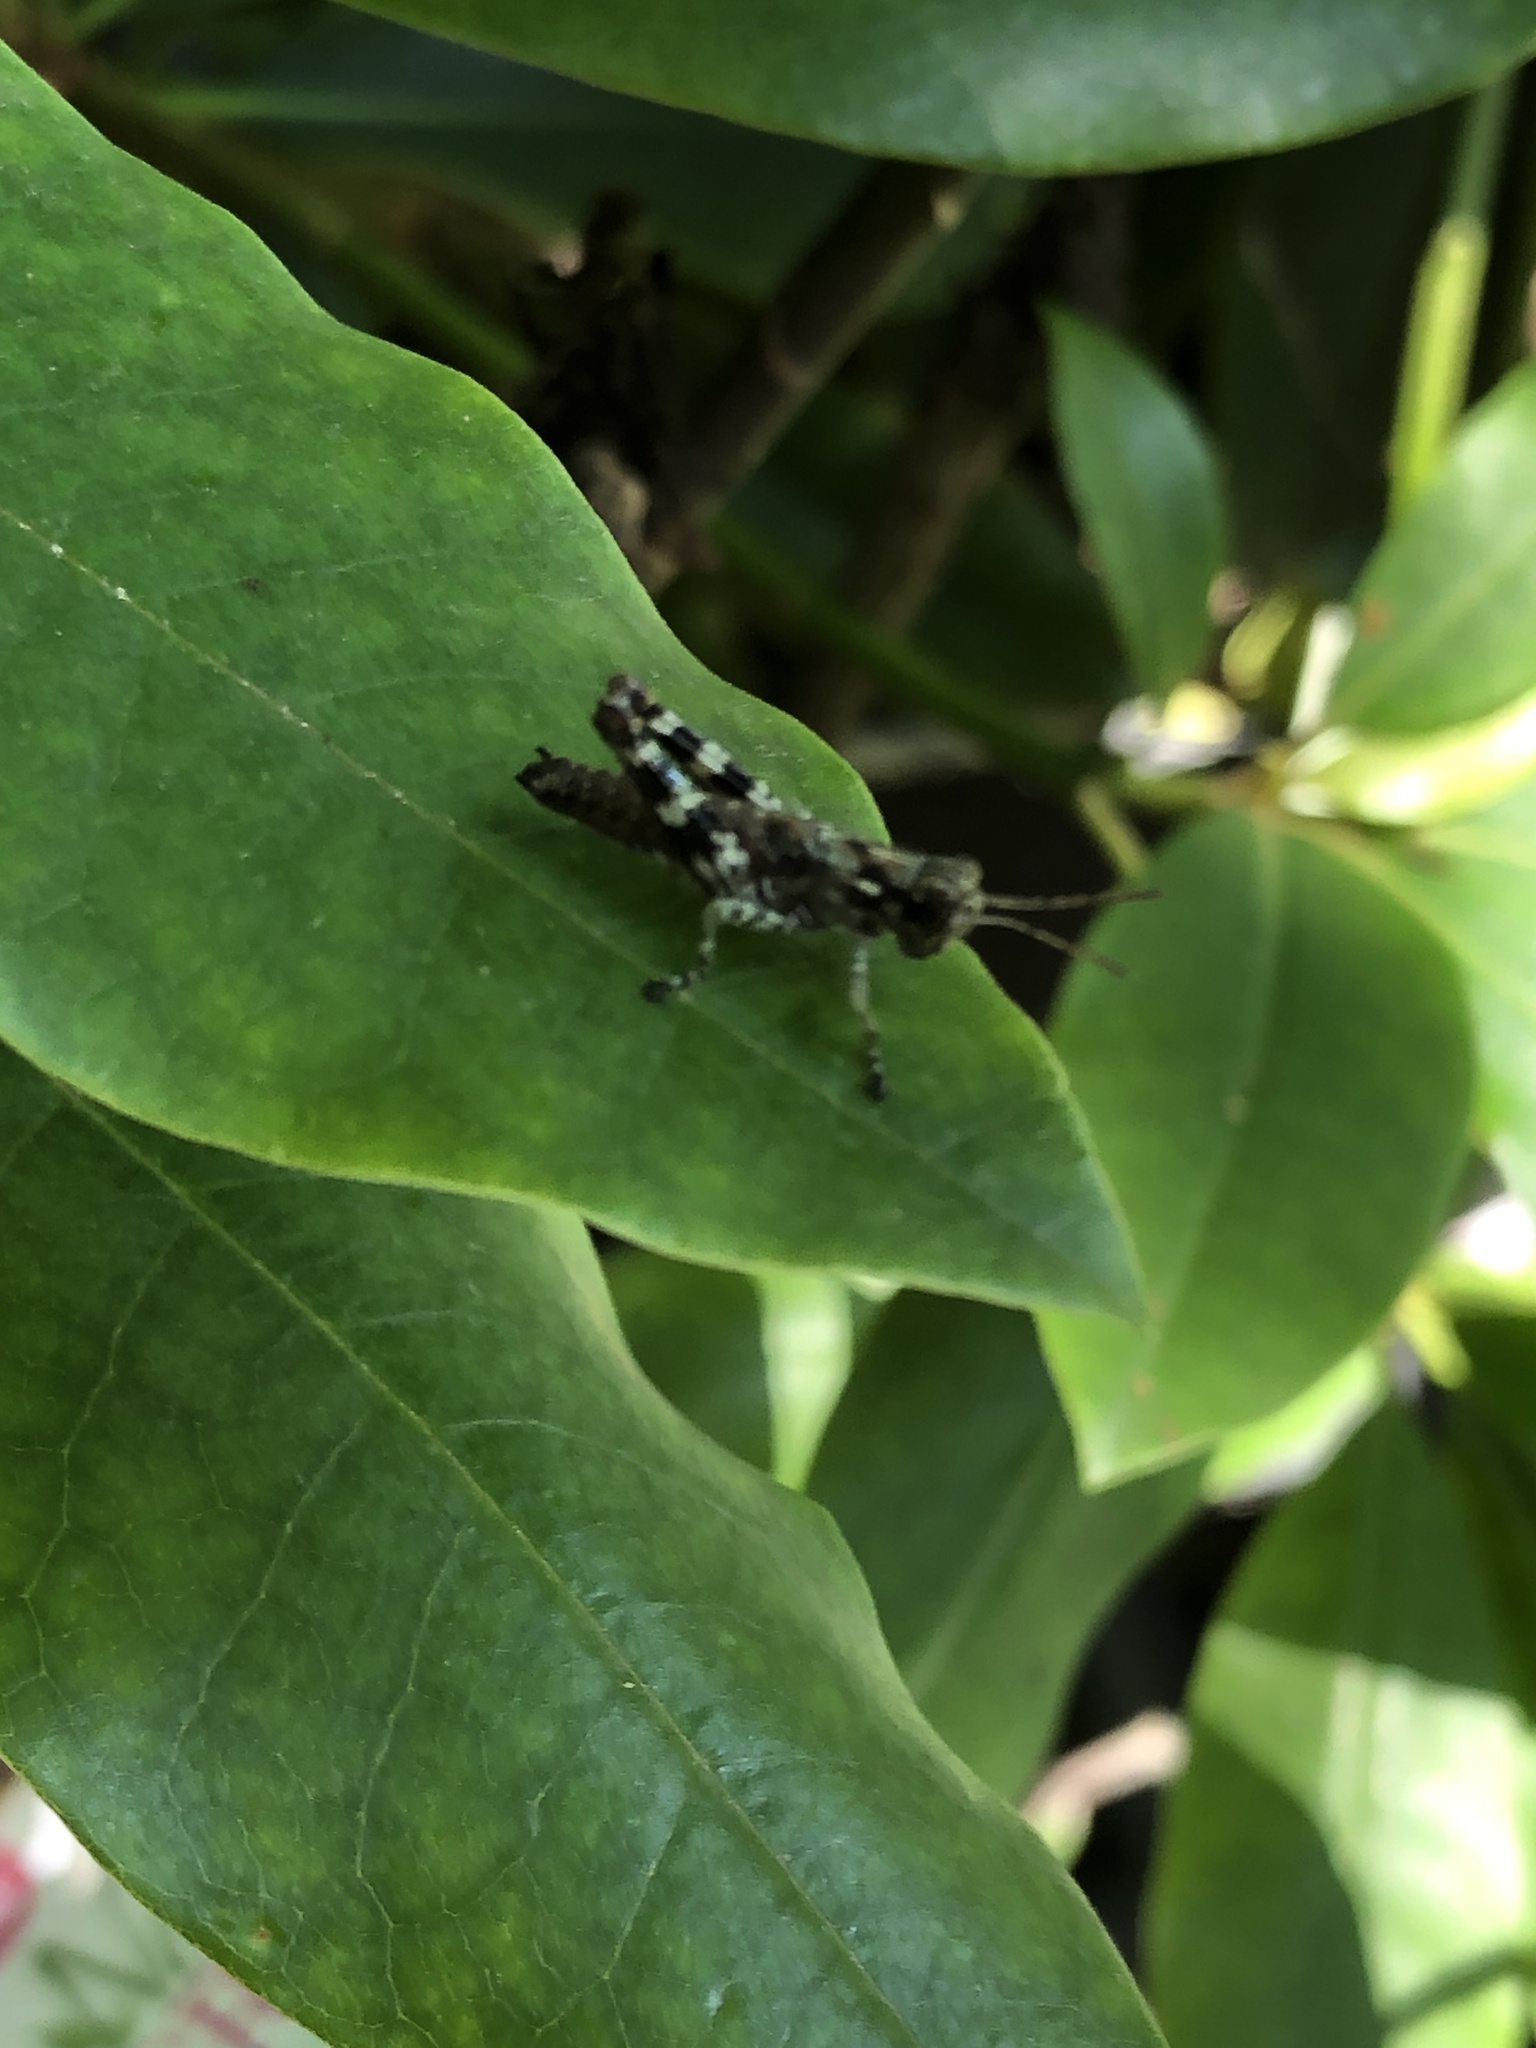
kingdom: Animalia
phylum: Arthropoda
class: Insecta
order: Orthoptera
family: Acrididae
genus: Melanoplus
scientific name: Melanoplus punctulatus
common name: Pine-tree spur-throat grasshopper
